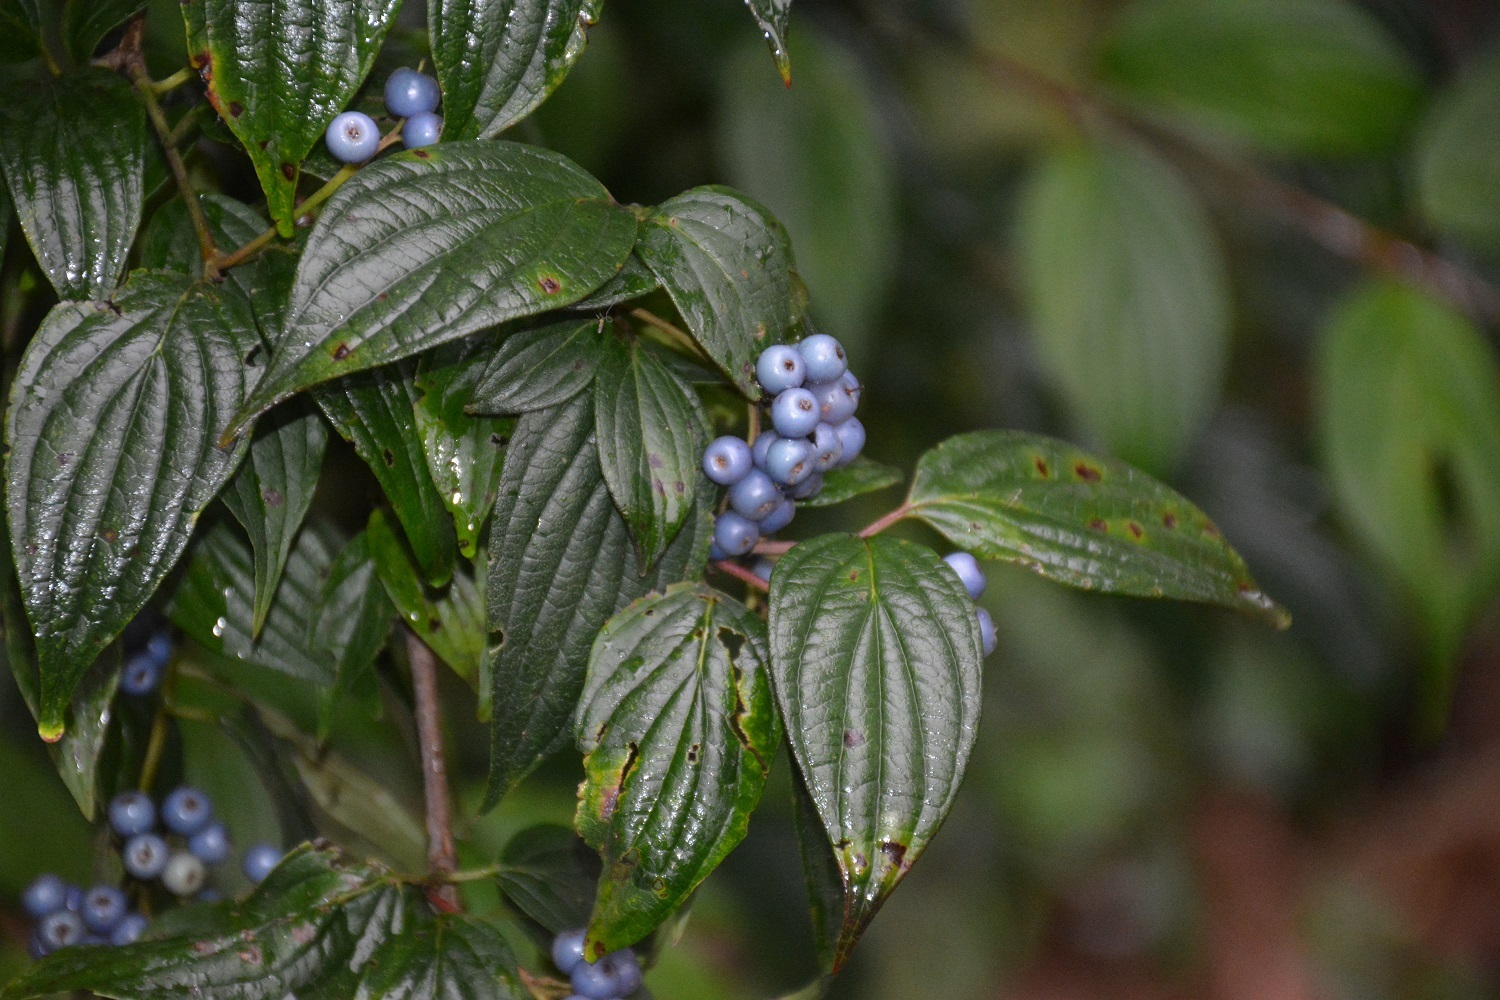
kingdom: Plantae
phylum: Tracheophyta
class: Magnoliopsida
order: Cornales
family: Cornaceae
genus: Cornus
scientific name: Cornus excelsa
